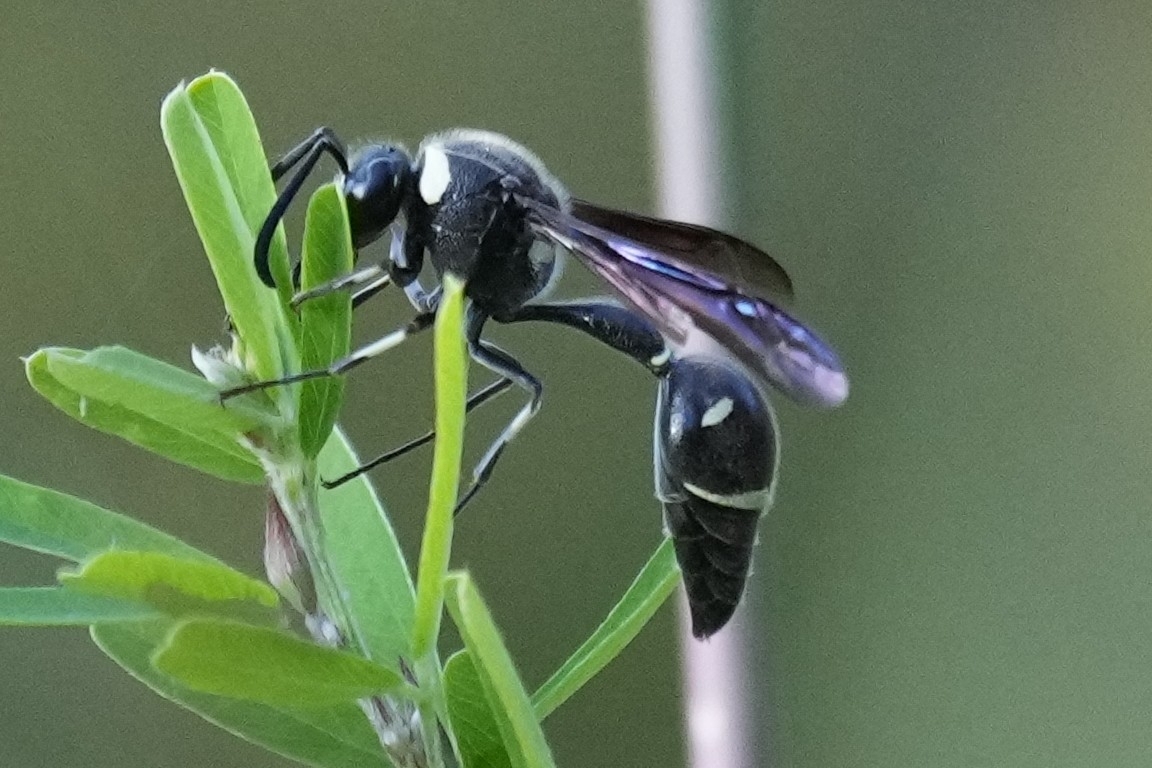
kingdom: Animalia
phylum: Arthropoda
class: Insecta
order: Hymenoptera
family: Vespidae
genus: Eumenes
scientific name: Eumenes fraternus
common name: Fraternal potter wasp
